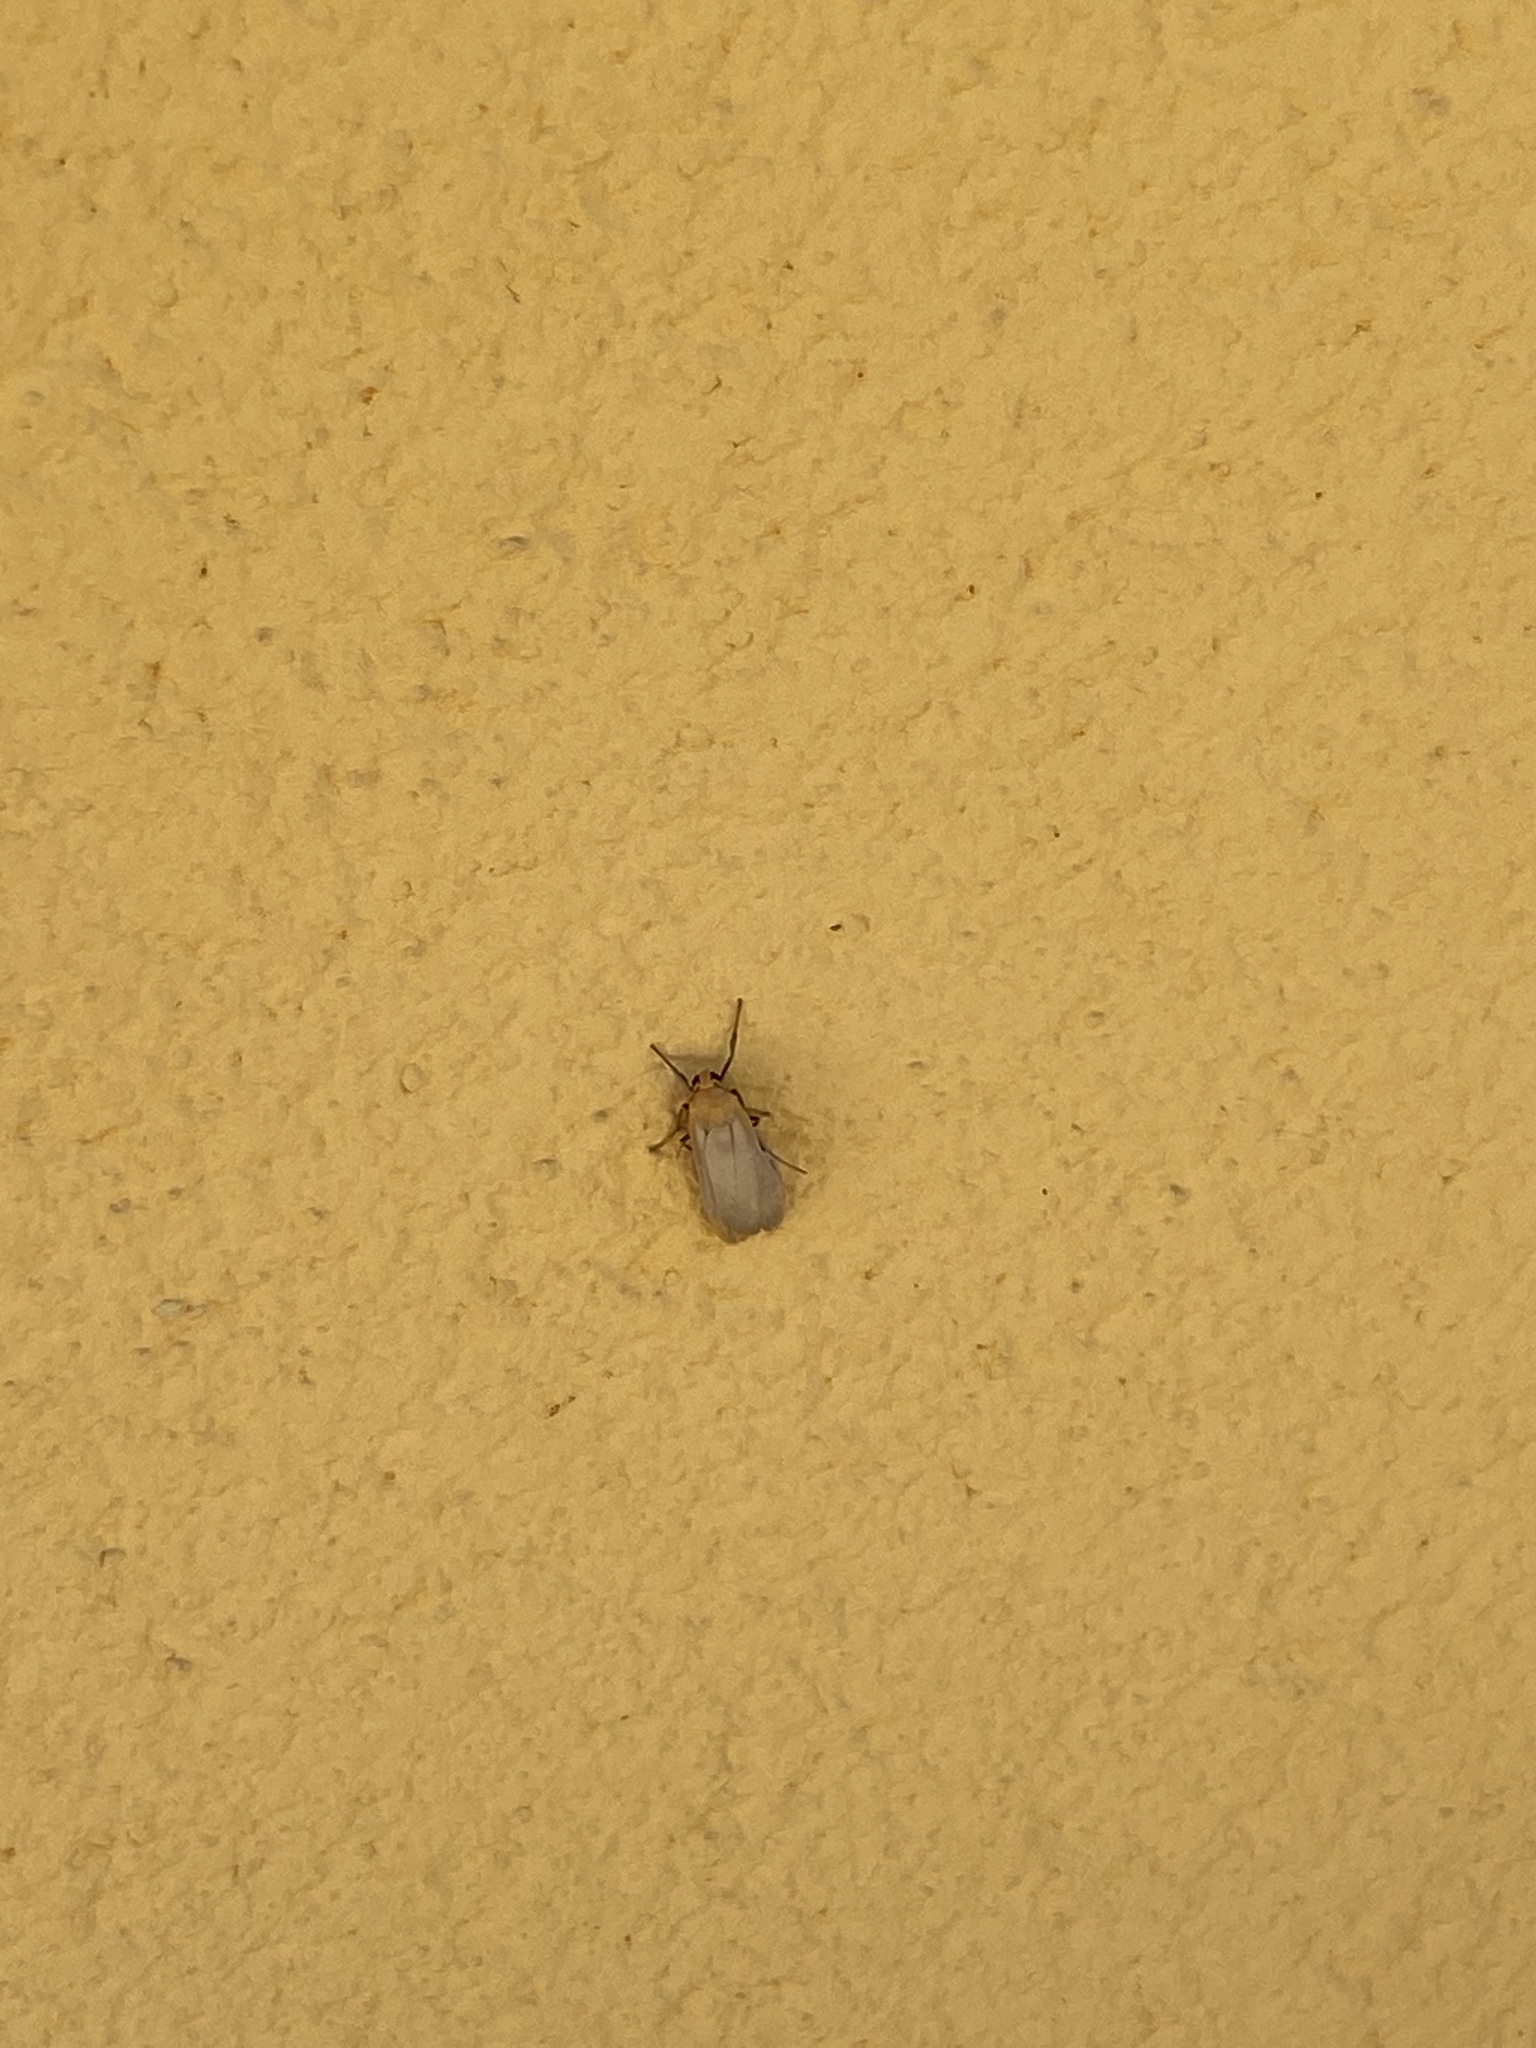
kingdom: Animalia
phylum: Arthropoda
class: Insecta
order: Lepidoptera
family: Erebidae
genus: Katha
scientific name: Katha depressa
